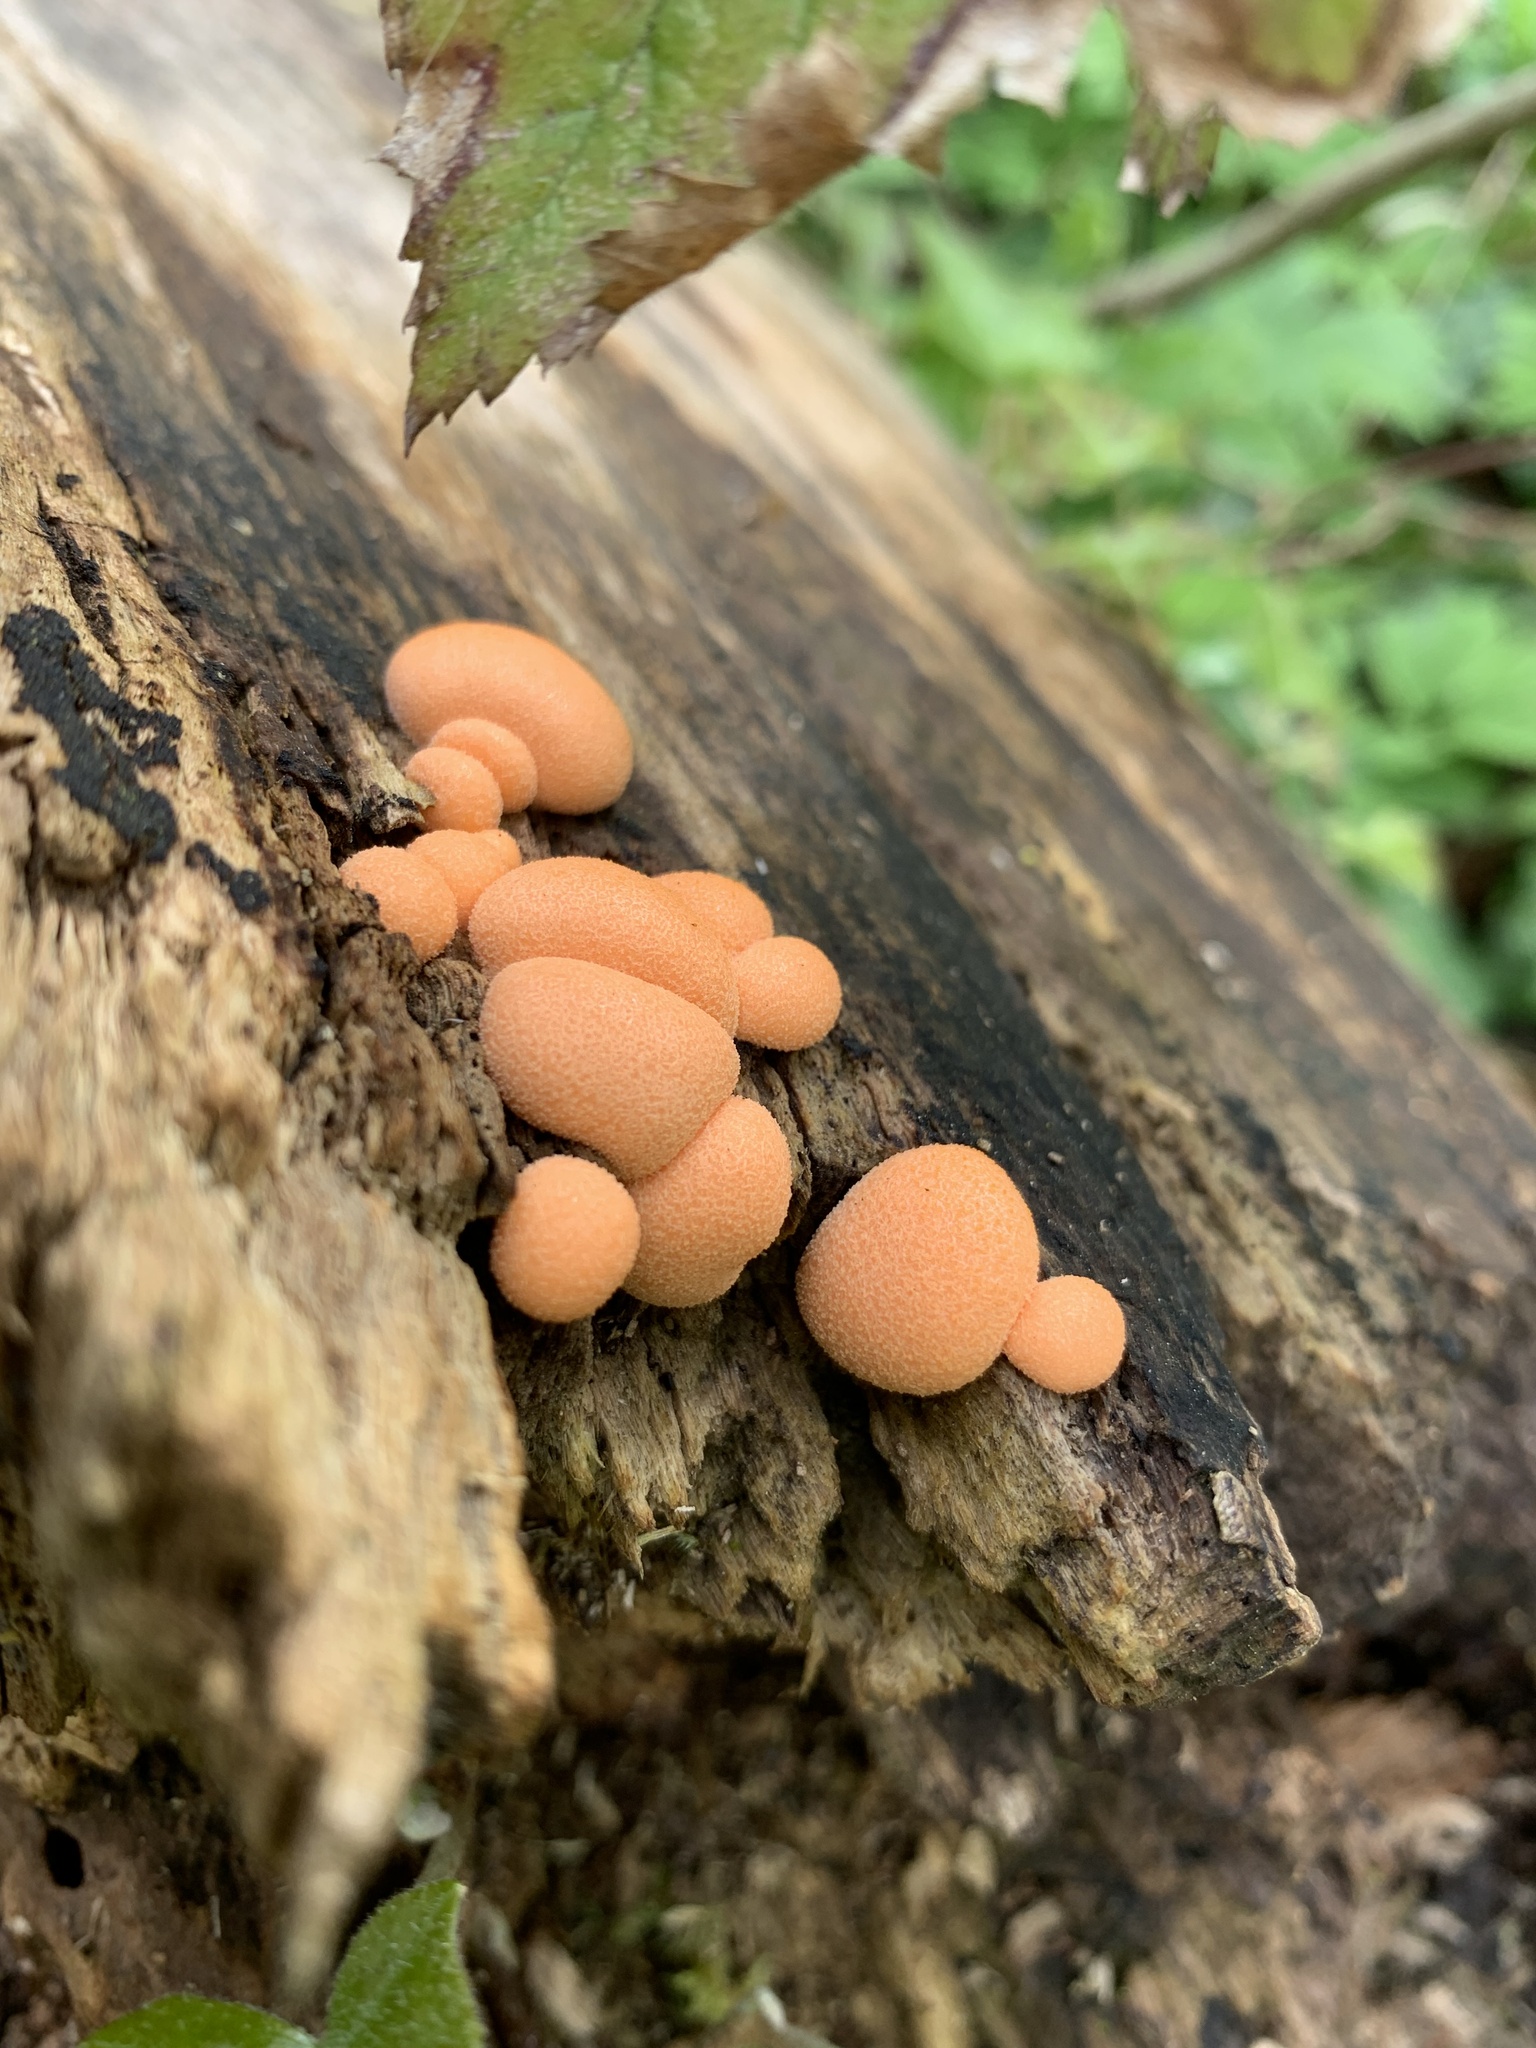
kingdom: Protozoa
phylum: Mycetozoa
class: Myxomycetes
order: Cribrariales
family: Tubiferaceae
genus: Lycogala
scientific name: Lycogala epidendrum
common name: Wolf's milk
